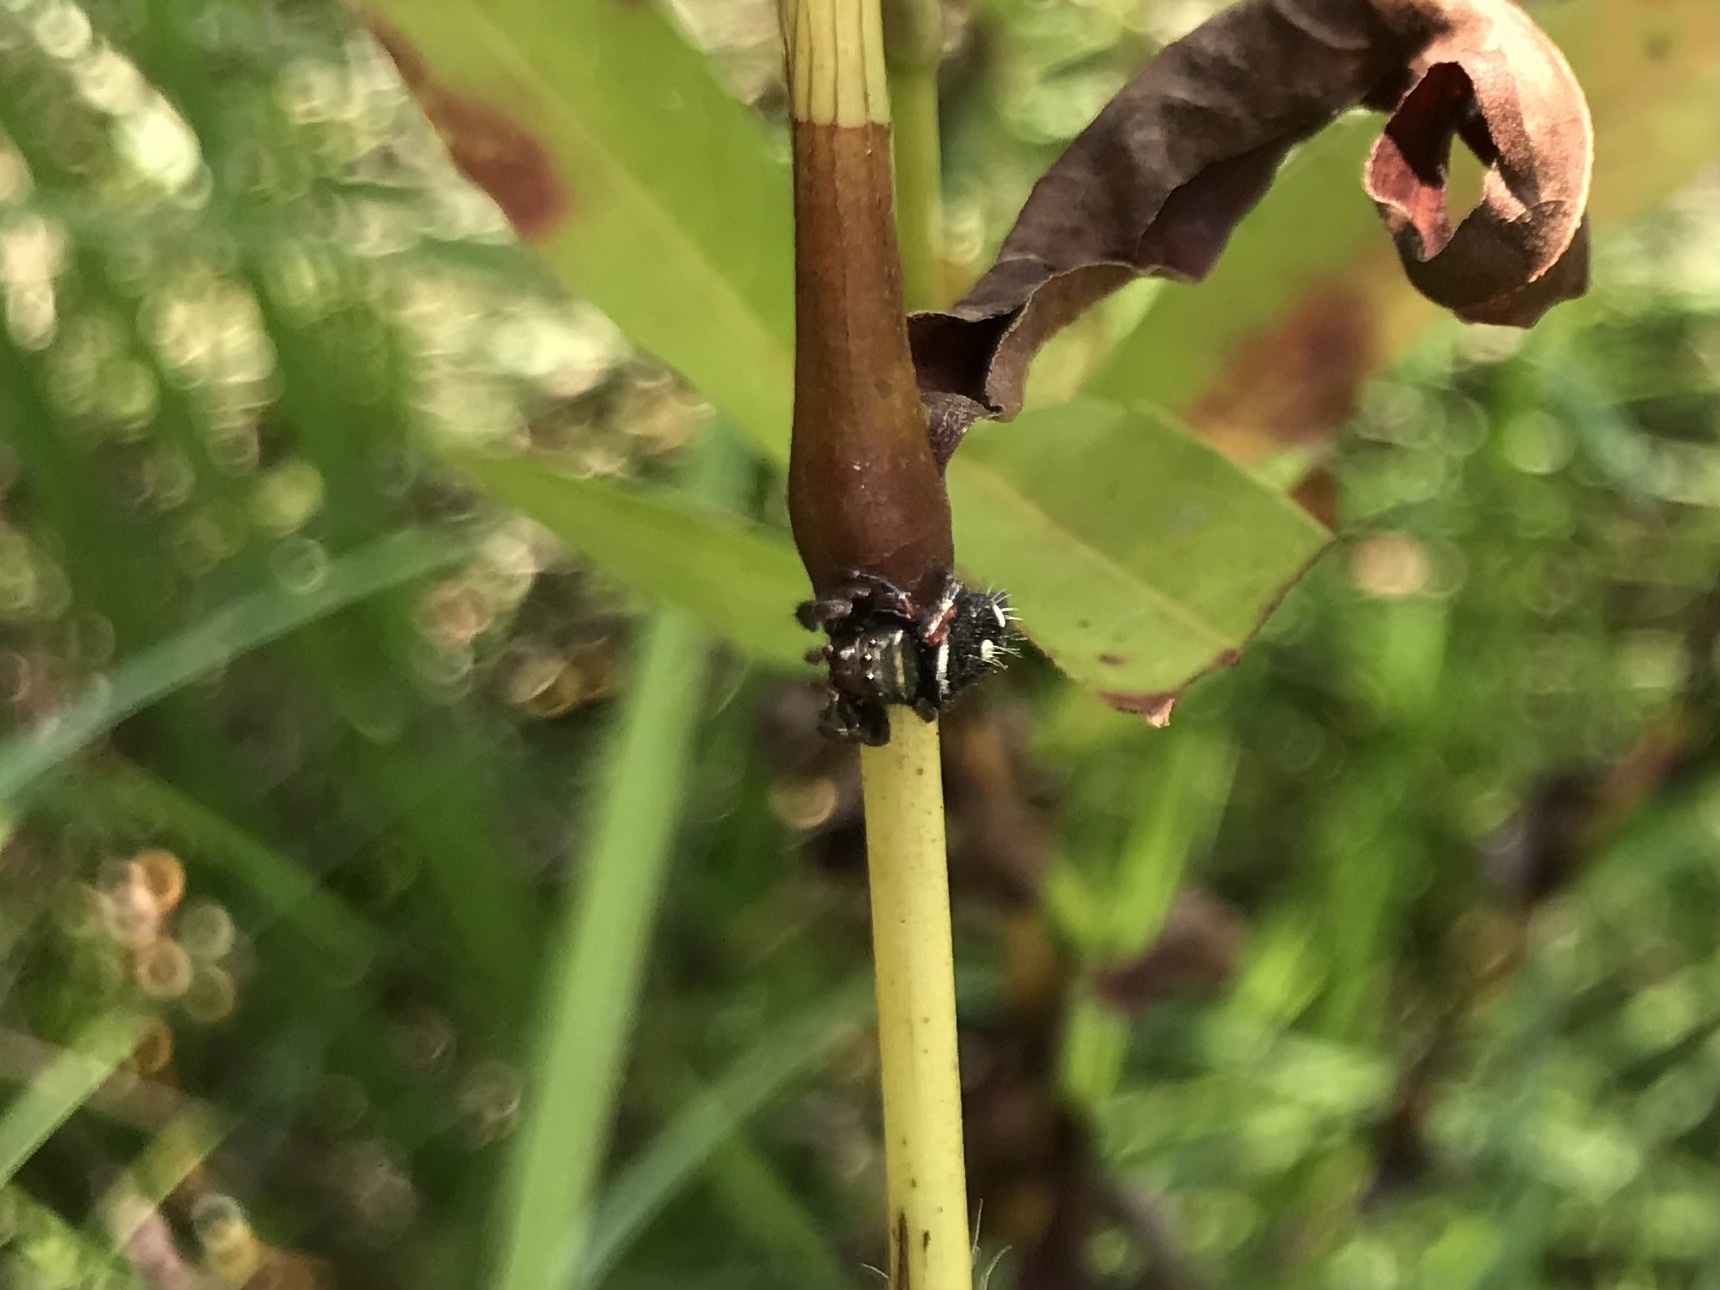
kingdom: Animalia
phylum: Arthropoda
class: Arachnida
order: Araneae
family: Salticidae
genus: Phidippus
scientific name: Phidippus audax
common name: Bold jumper
